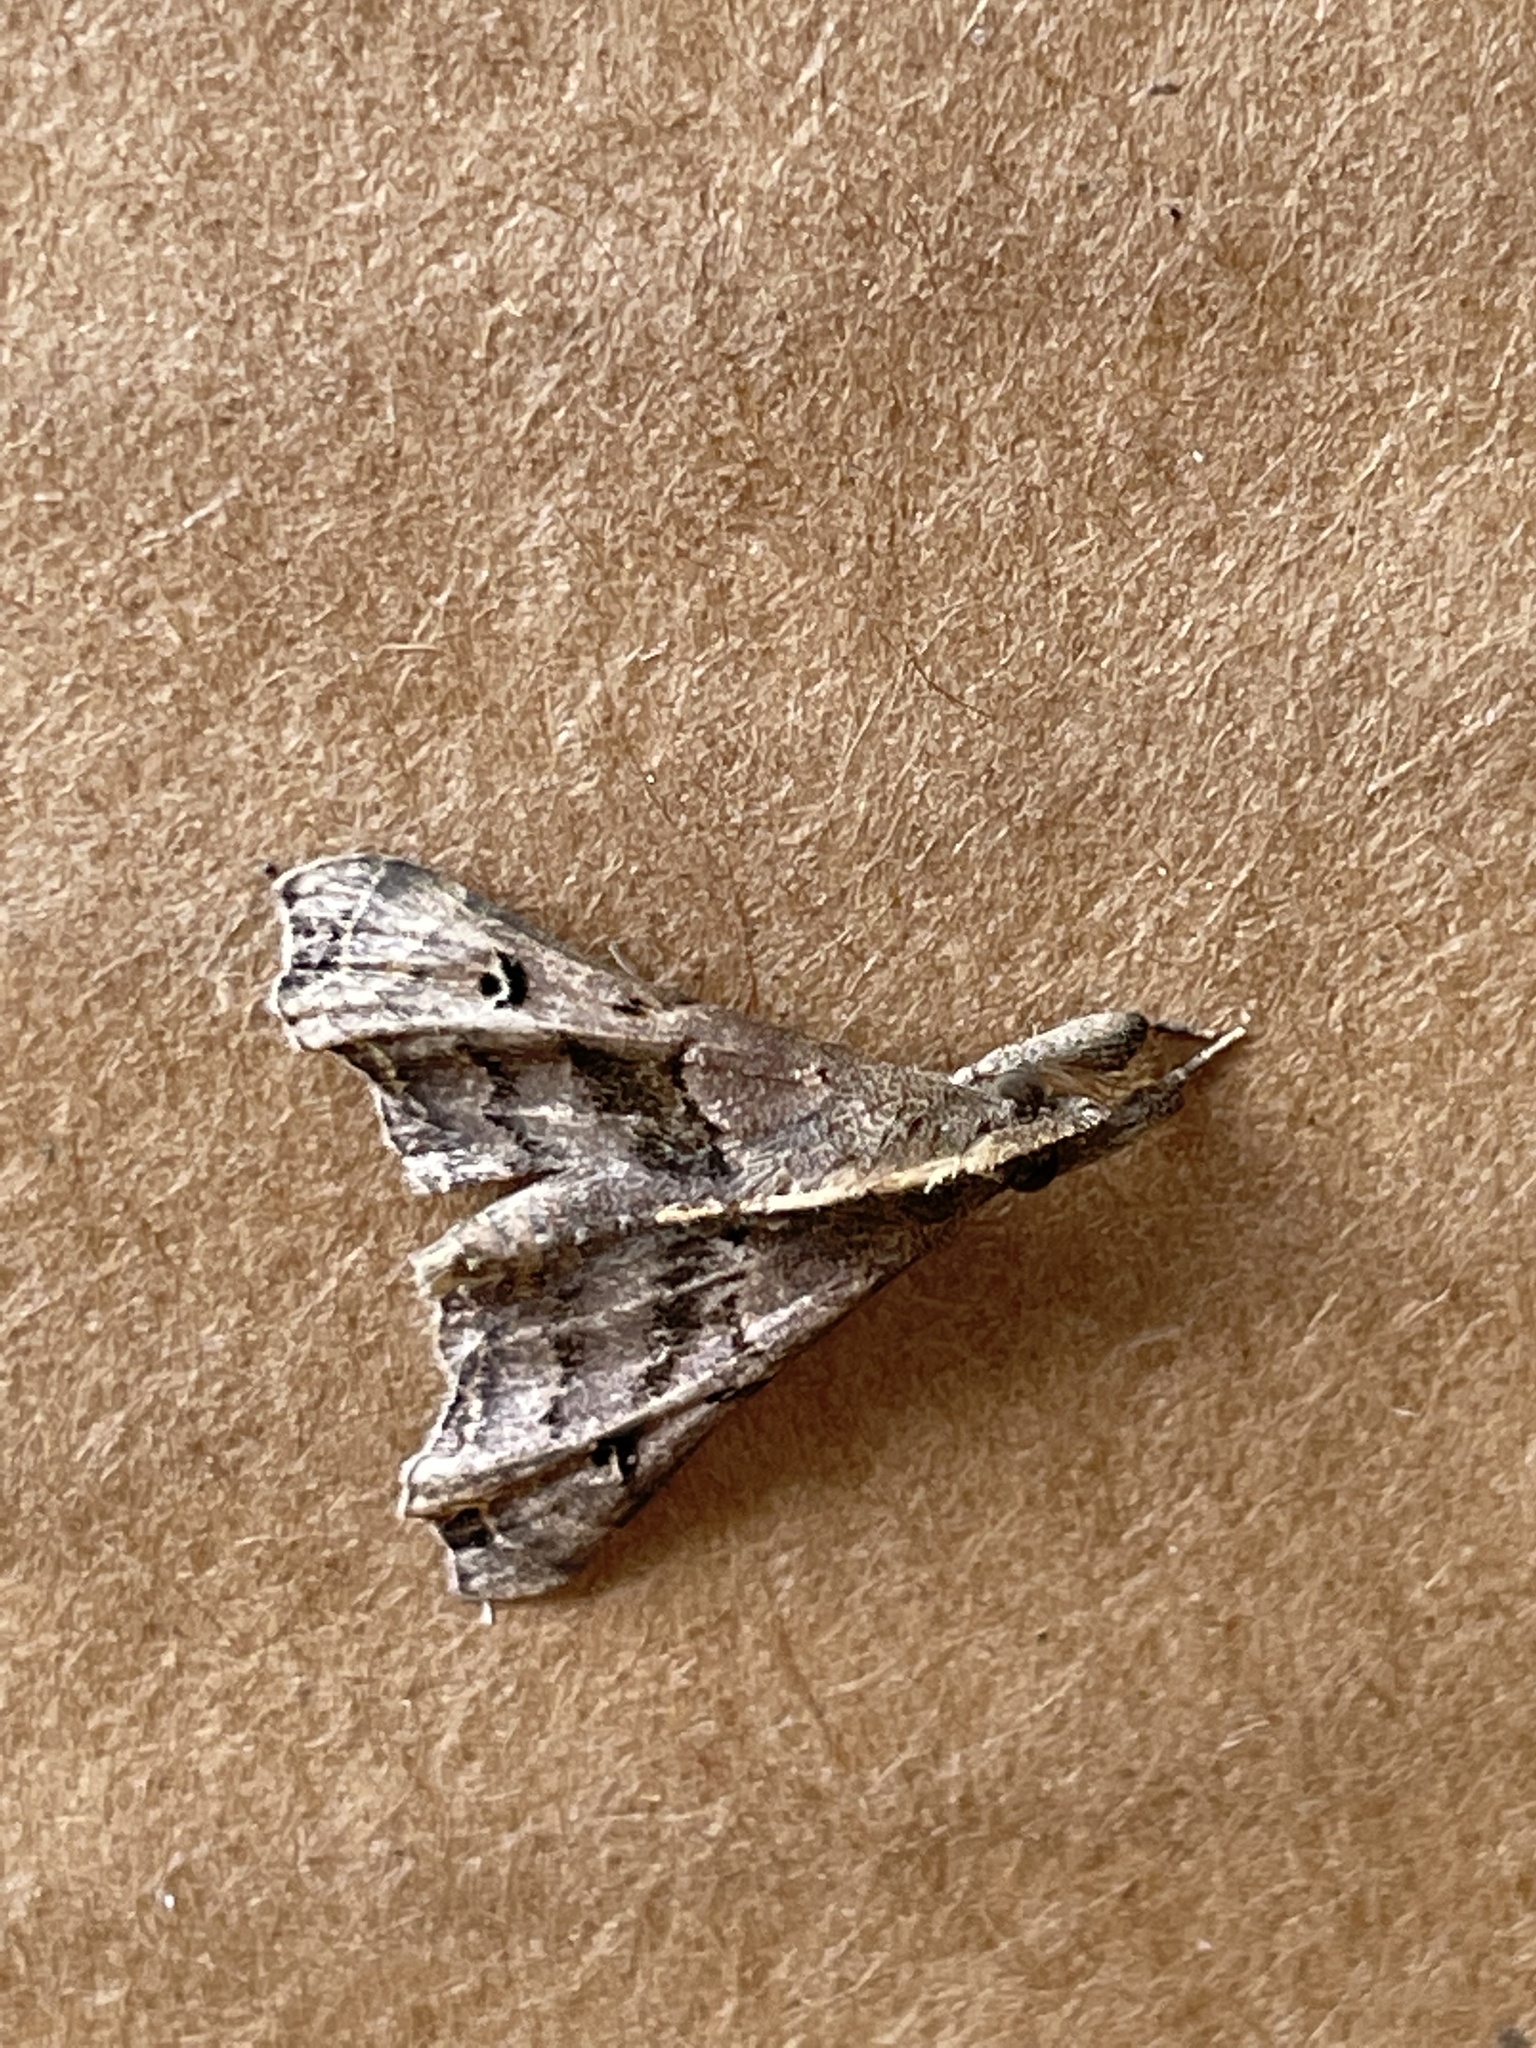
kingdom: Animalia
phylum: Arthropoda
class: Insecta
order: Lepidoptera
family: Erebidae
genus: Palthis
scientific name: Palthis asopialis
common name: Faint-spotted palthis moth
